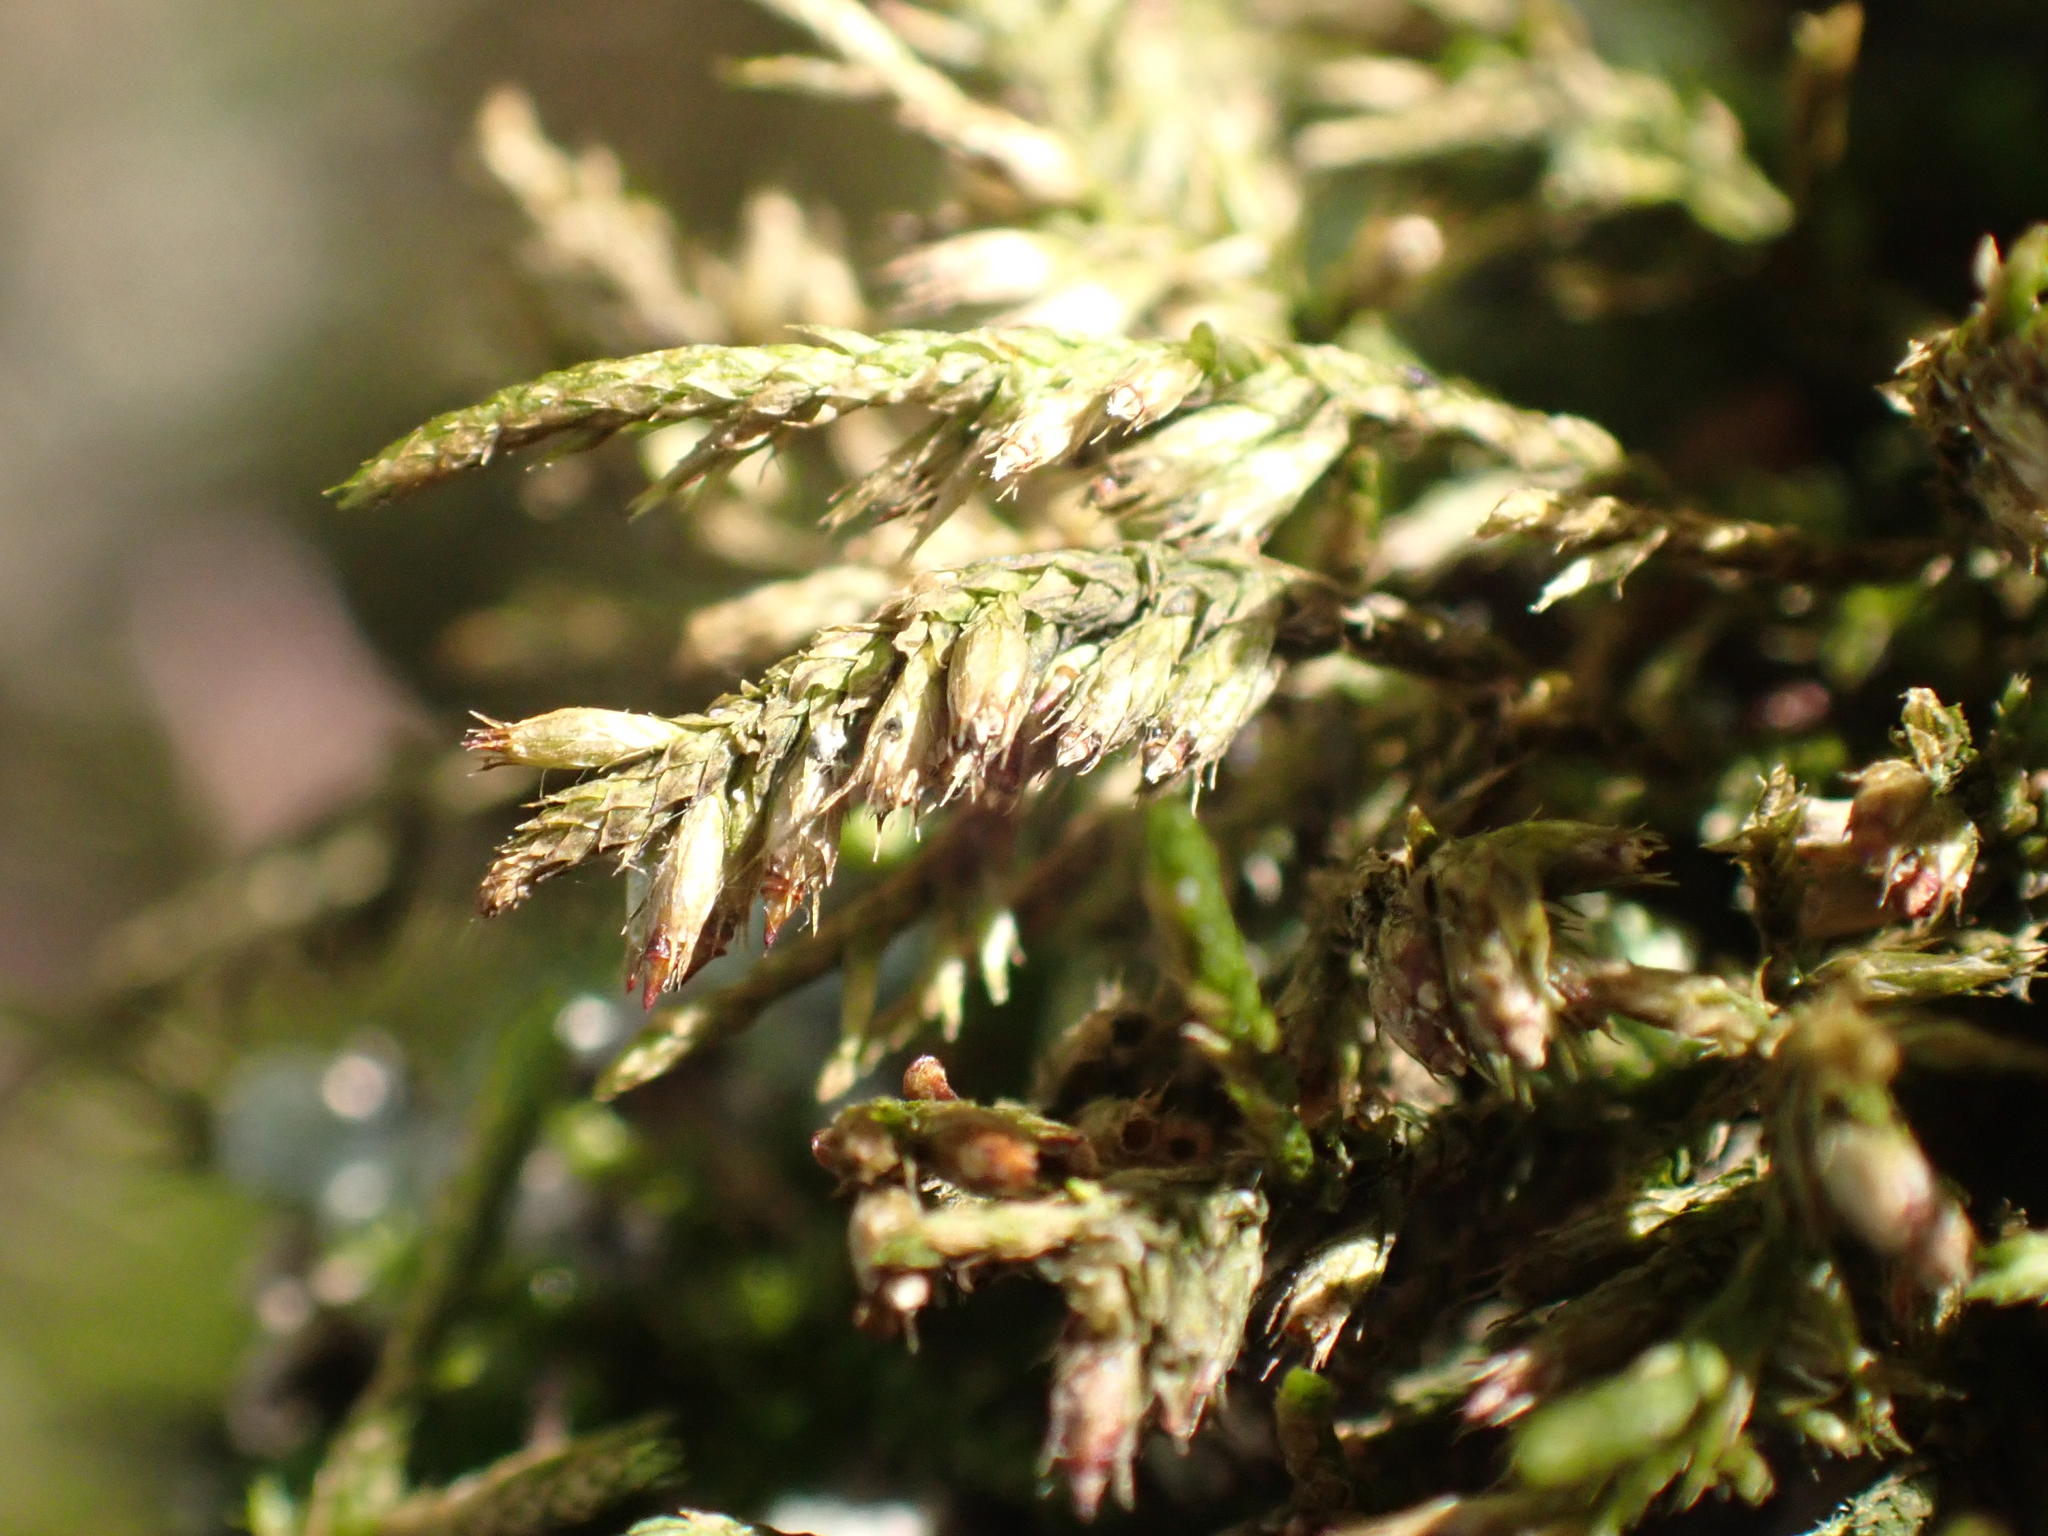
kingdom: Plantae
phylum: Bryophyta
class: Bryopsida
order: Hypnales
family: Cryphaeaceae
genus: Cryphaea
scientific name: Cryphaea heteromalla
